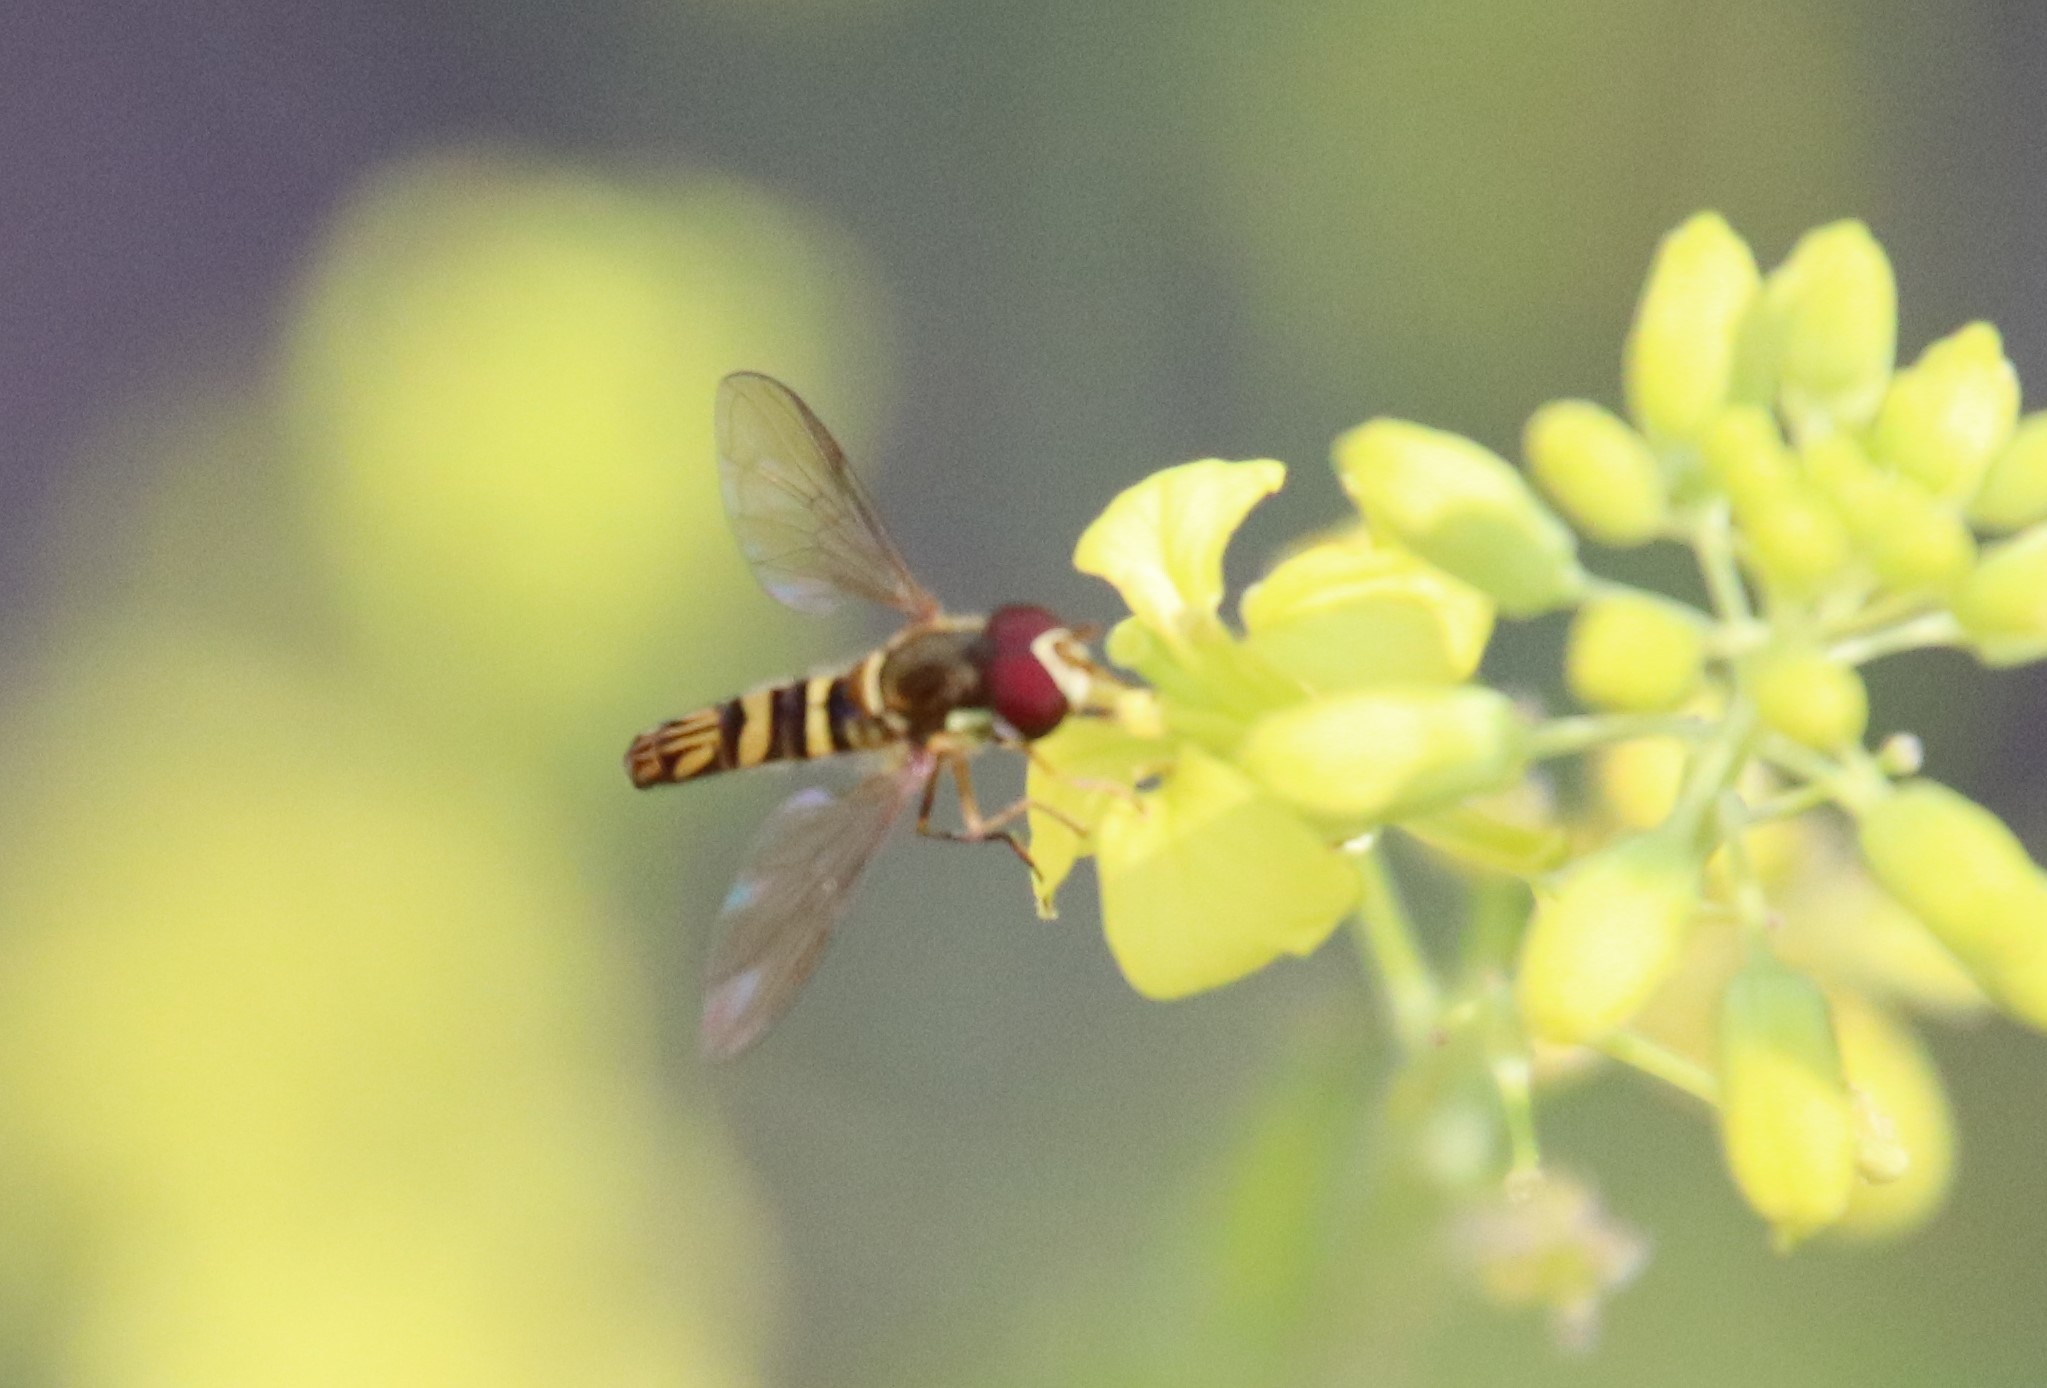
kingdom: Animalia
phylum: Arthropoda
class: Insecta
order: Diptera
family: Syrphidae
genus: Allograpta
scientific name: Allograpta obliqua
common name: Common oblique syrphid
